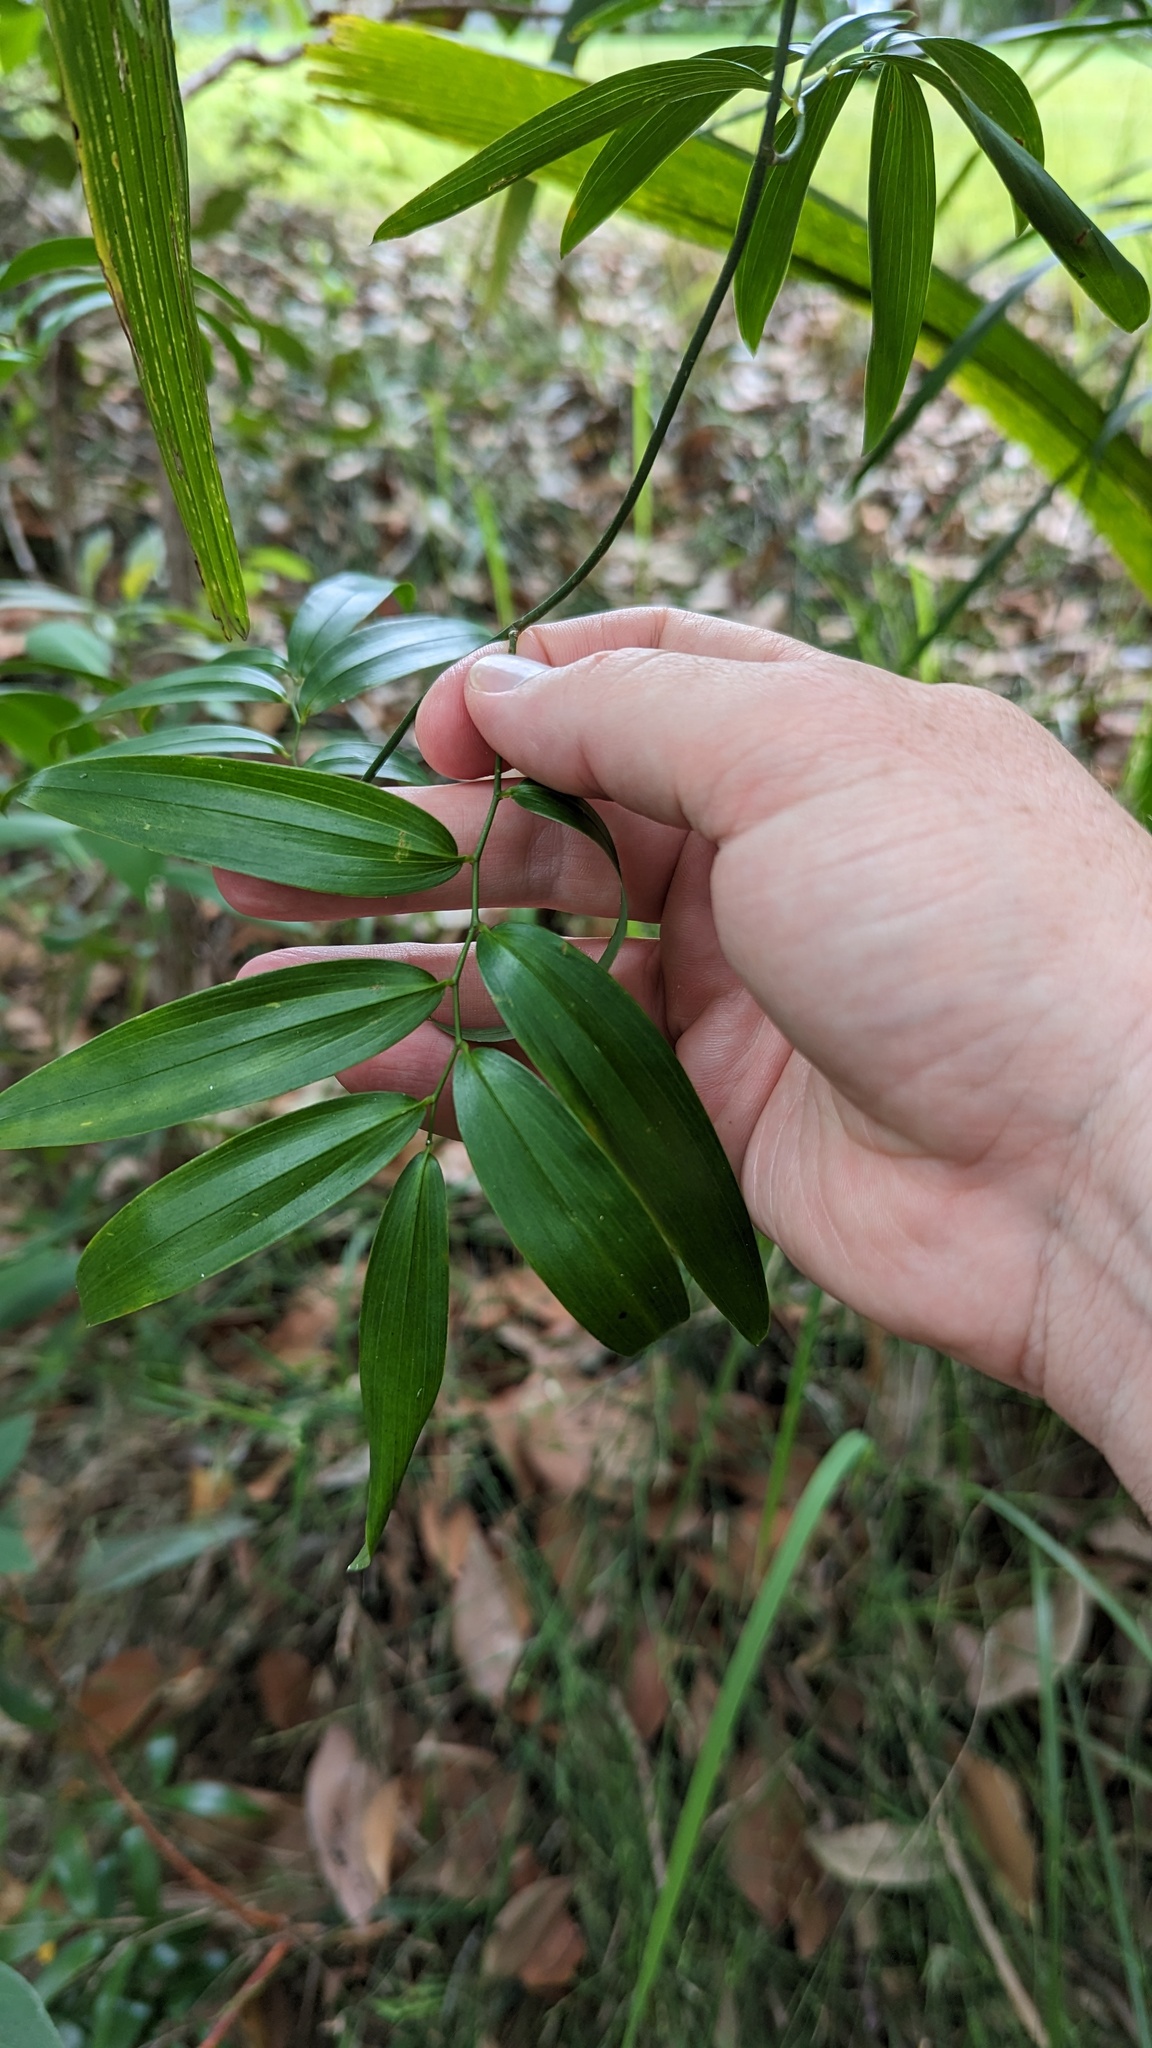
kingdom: Plantae
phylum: Tracheophyta
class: Liliopsida
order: Asparagales
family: Asphodelaceae
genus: Geitonoplesium
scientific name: Geitonoplesium cymosum
